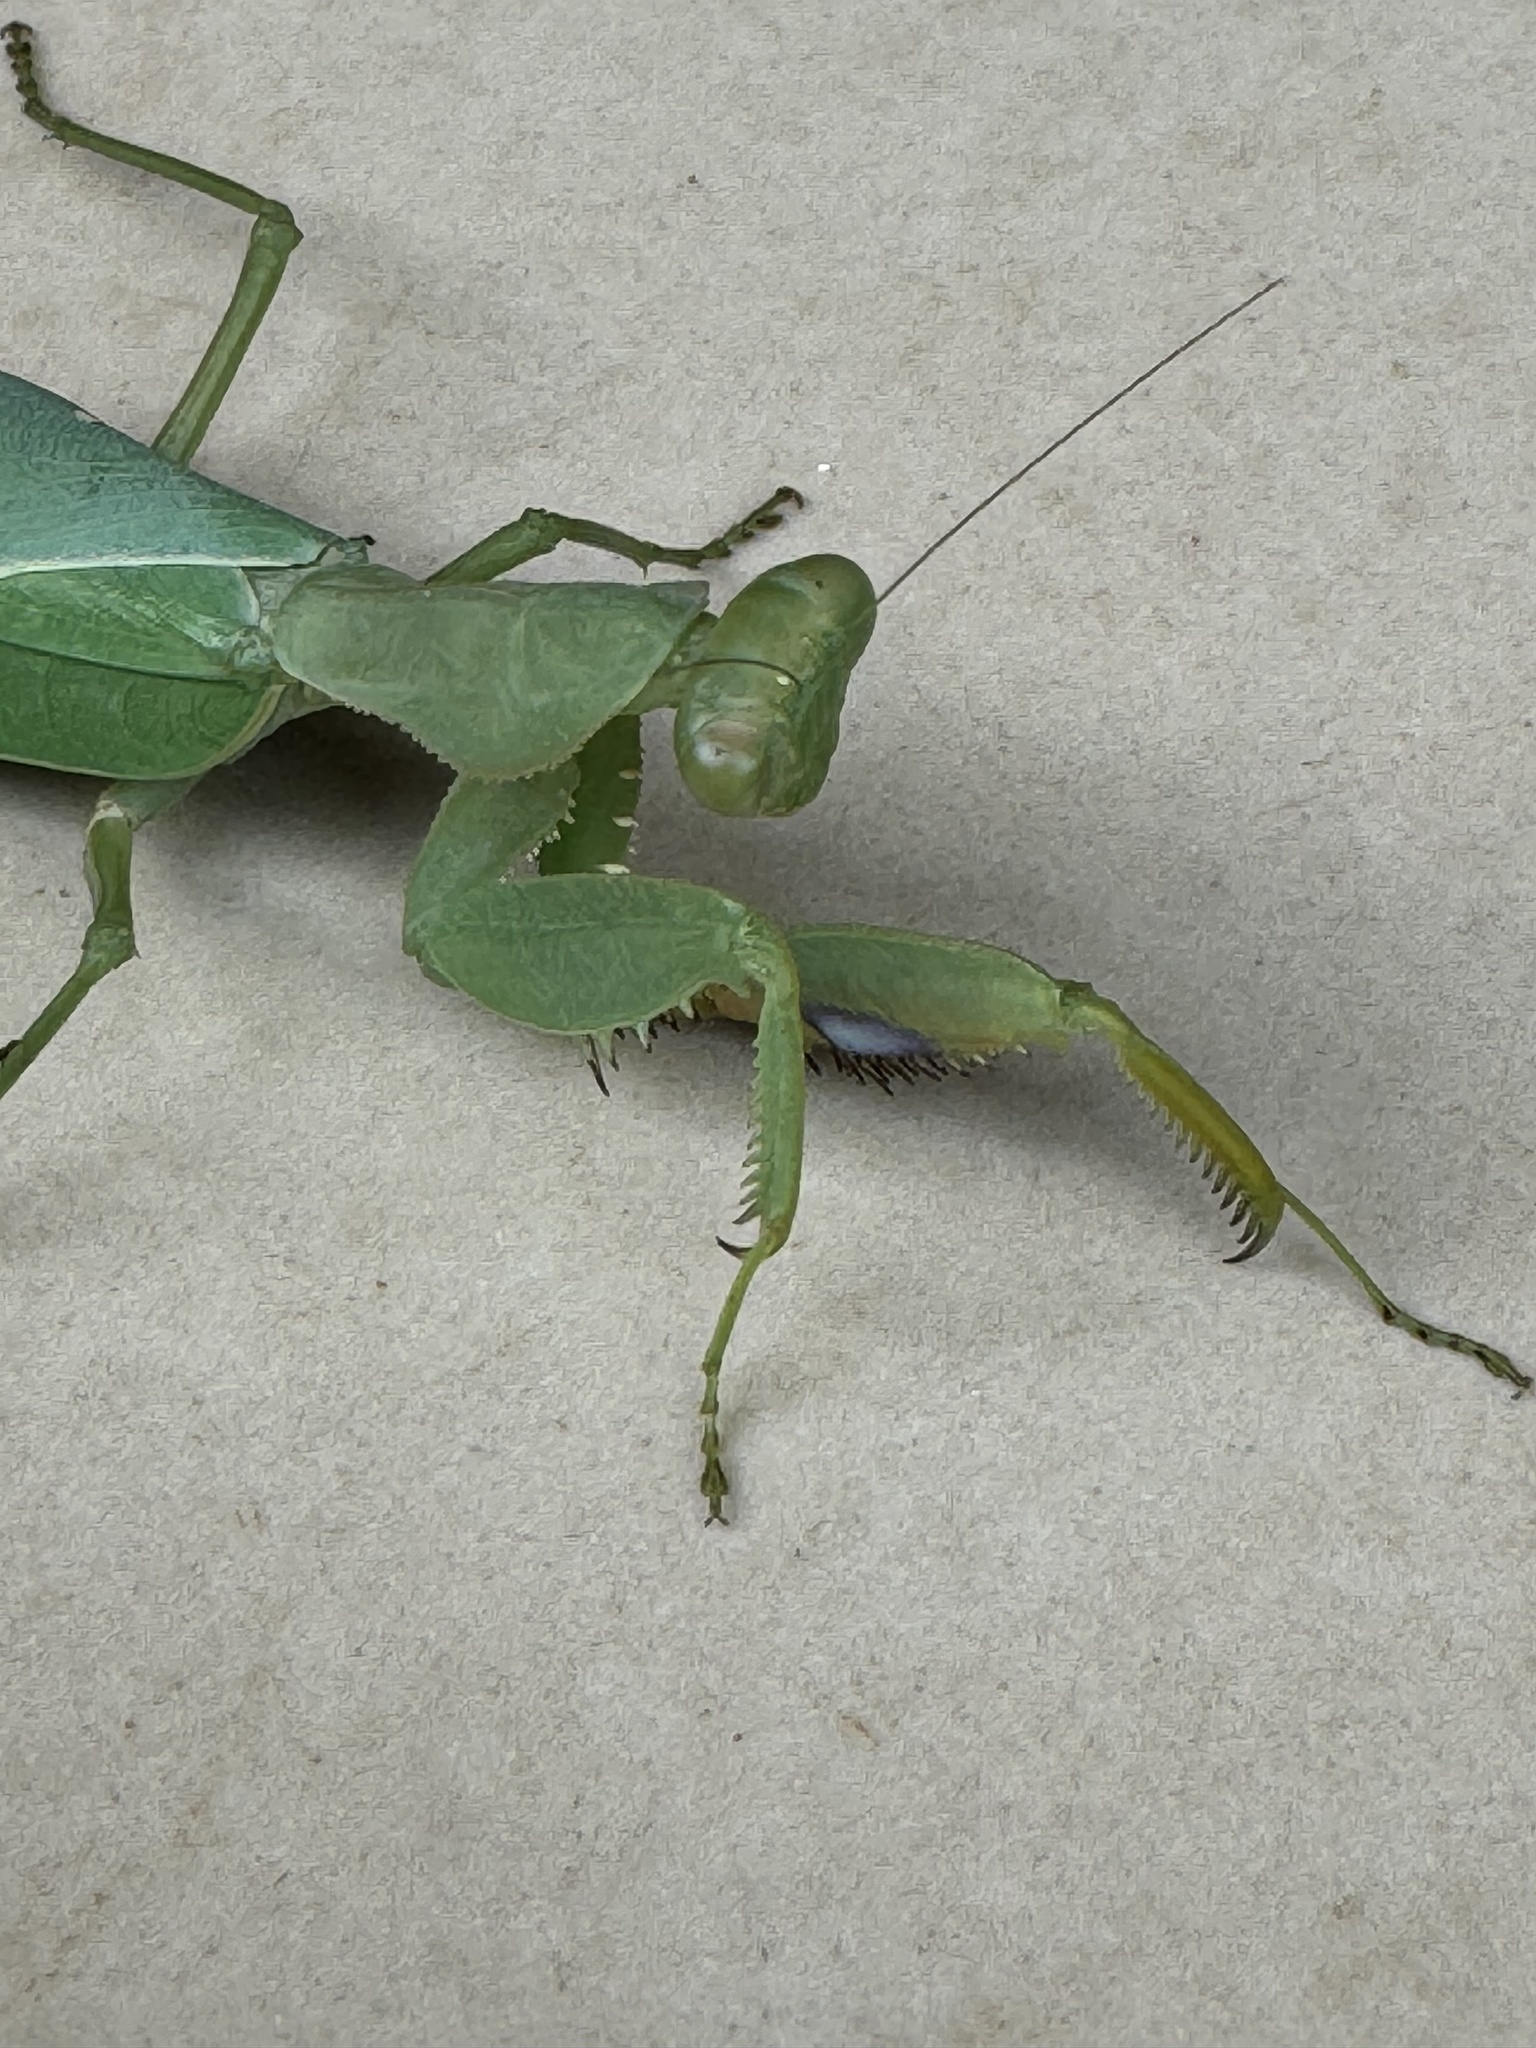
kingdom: Animalia
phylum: Arthropoda
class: Insecta
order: Mantodea
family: Mantidae
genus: Sphodromantis
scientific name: Sphodromantis centralis
